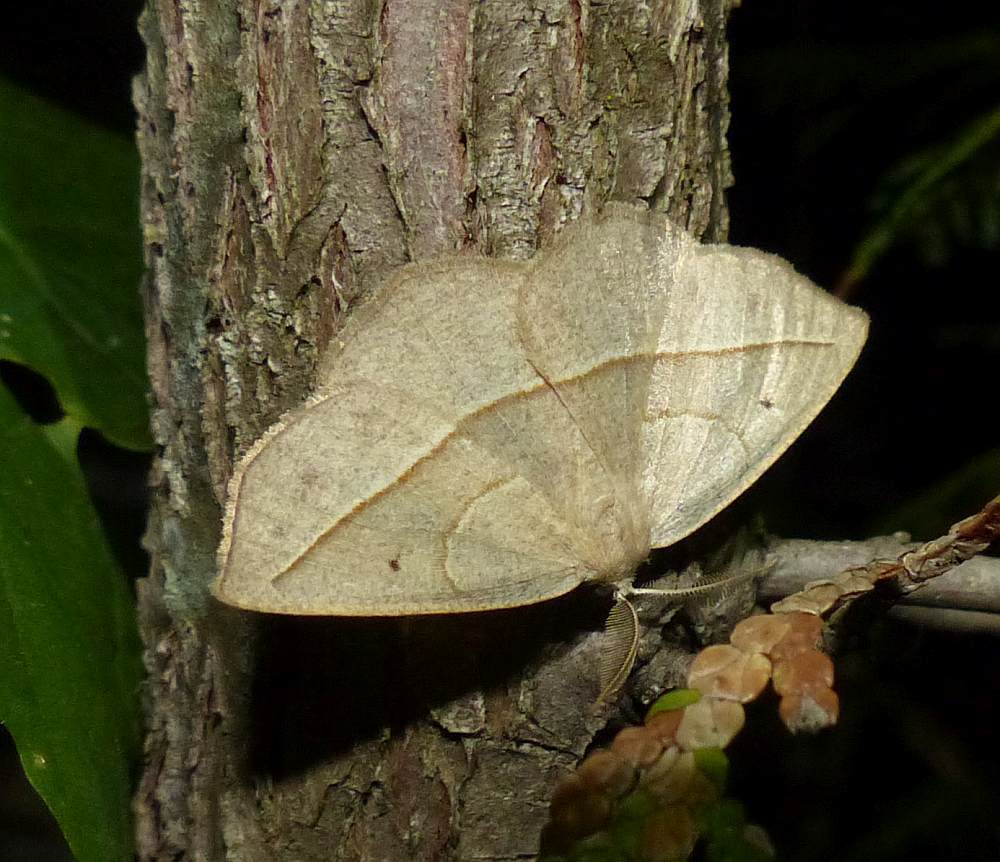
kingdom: Animalia
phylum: Arthropoda
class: Insecta
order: Lepidoptera
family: Geometridae
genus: Eusarca
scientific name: Eusarca confusaria
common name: Confused eusarca
